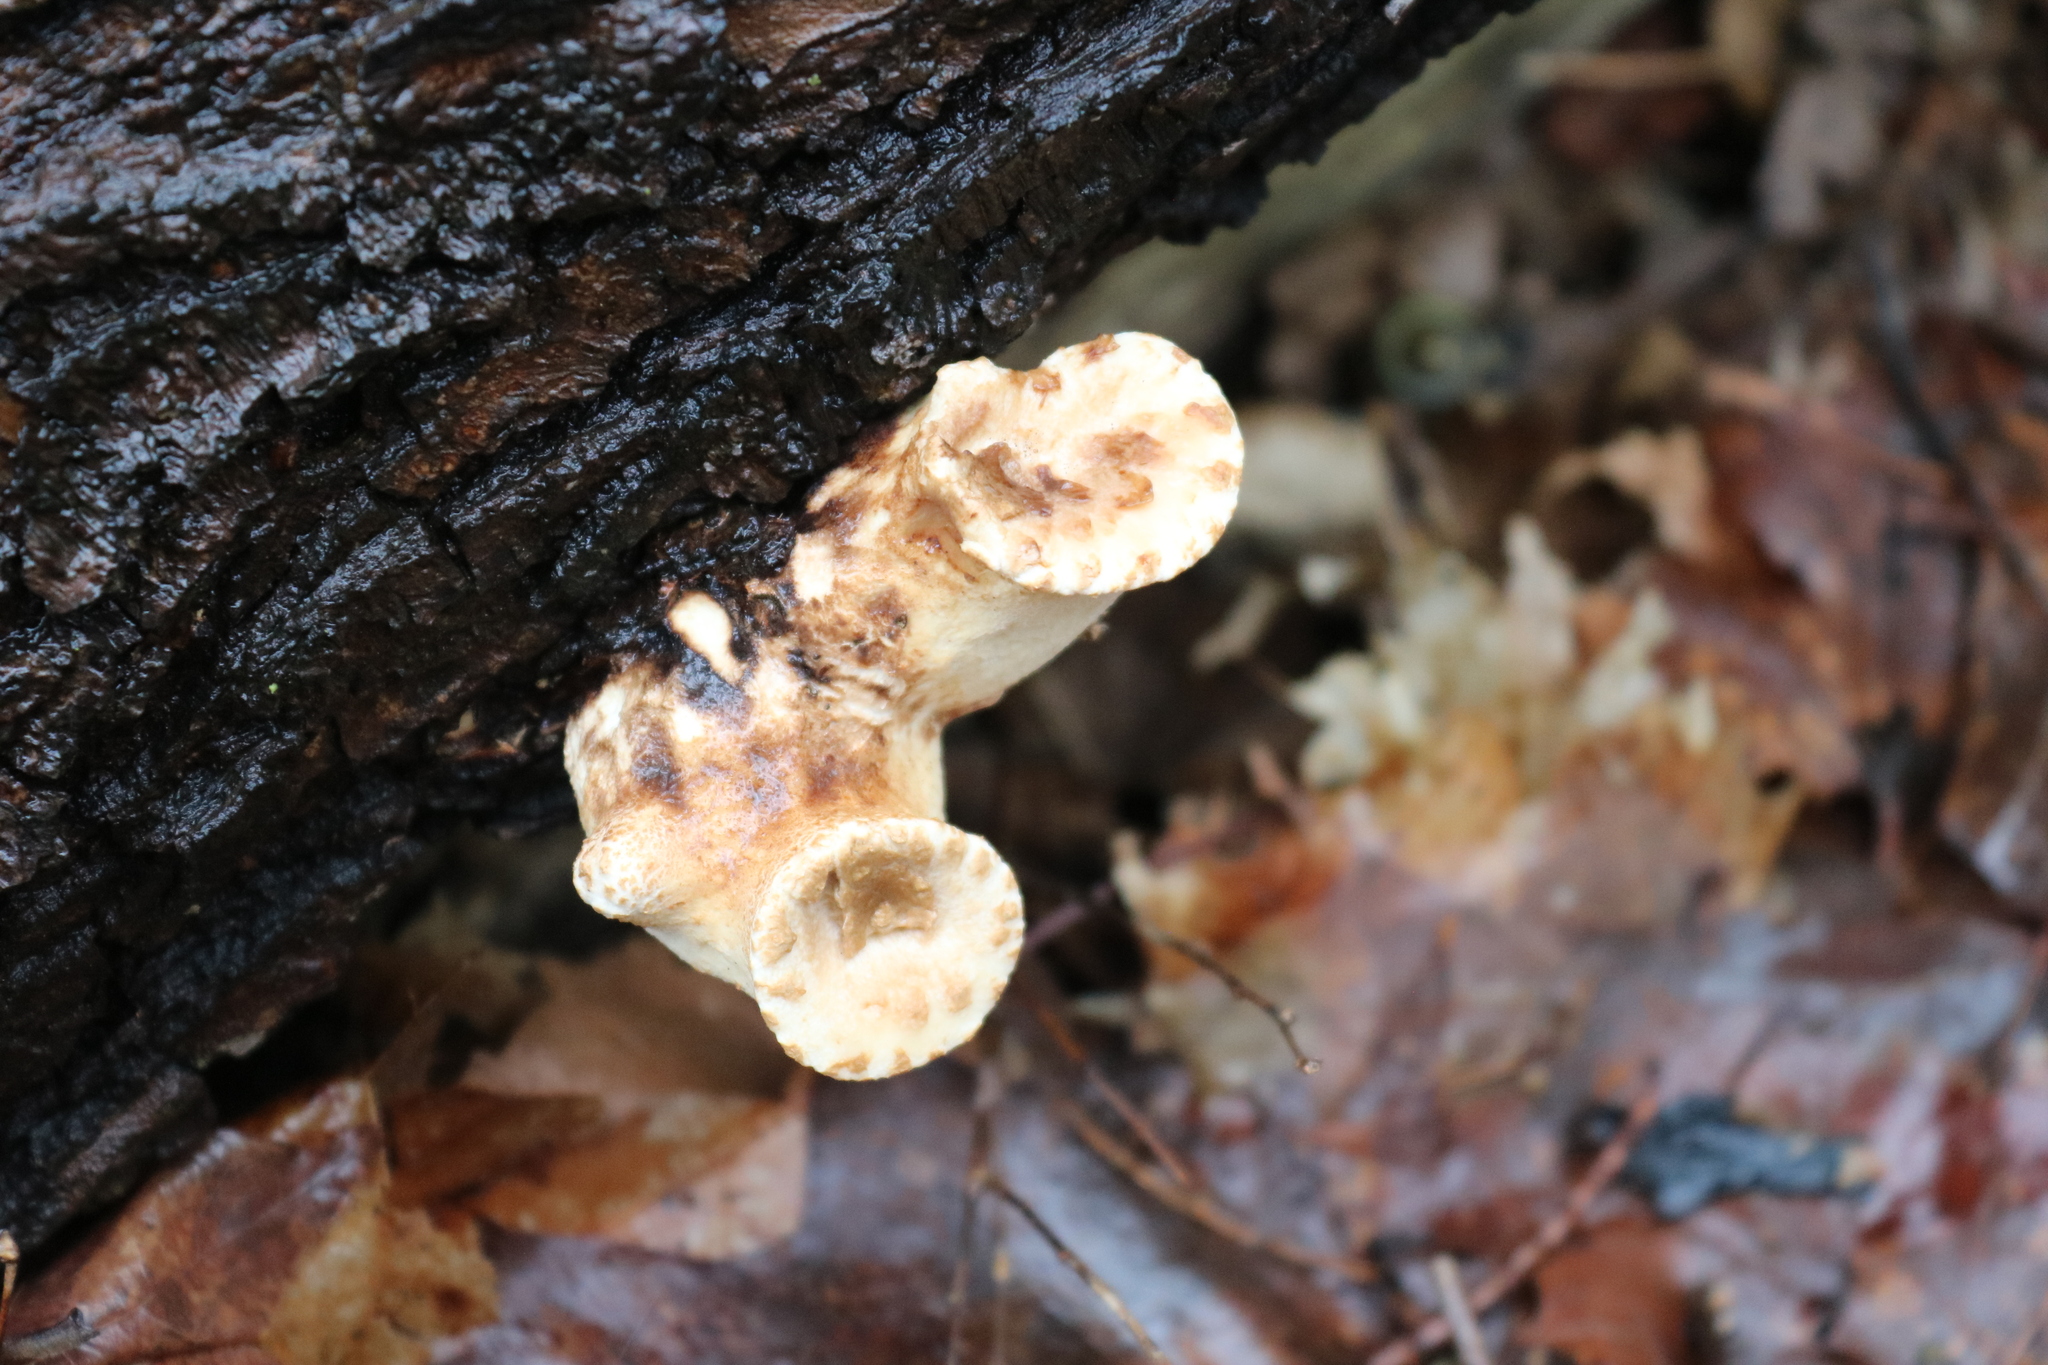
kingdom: Fungi
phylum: Basidiomycota
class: Agaricomycetes
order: Polyporales
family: Polyporaceae
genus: Cerioporus
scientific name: Cerioporus squamosus
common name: Dryad's saddle
